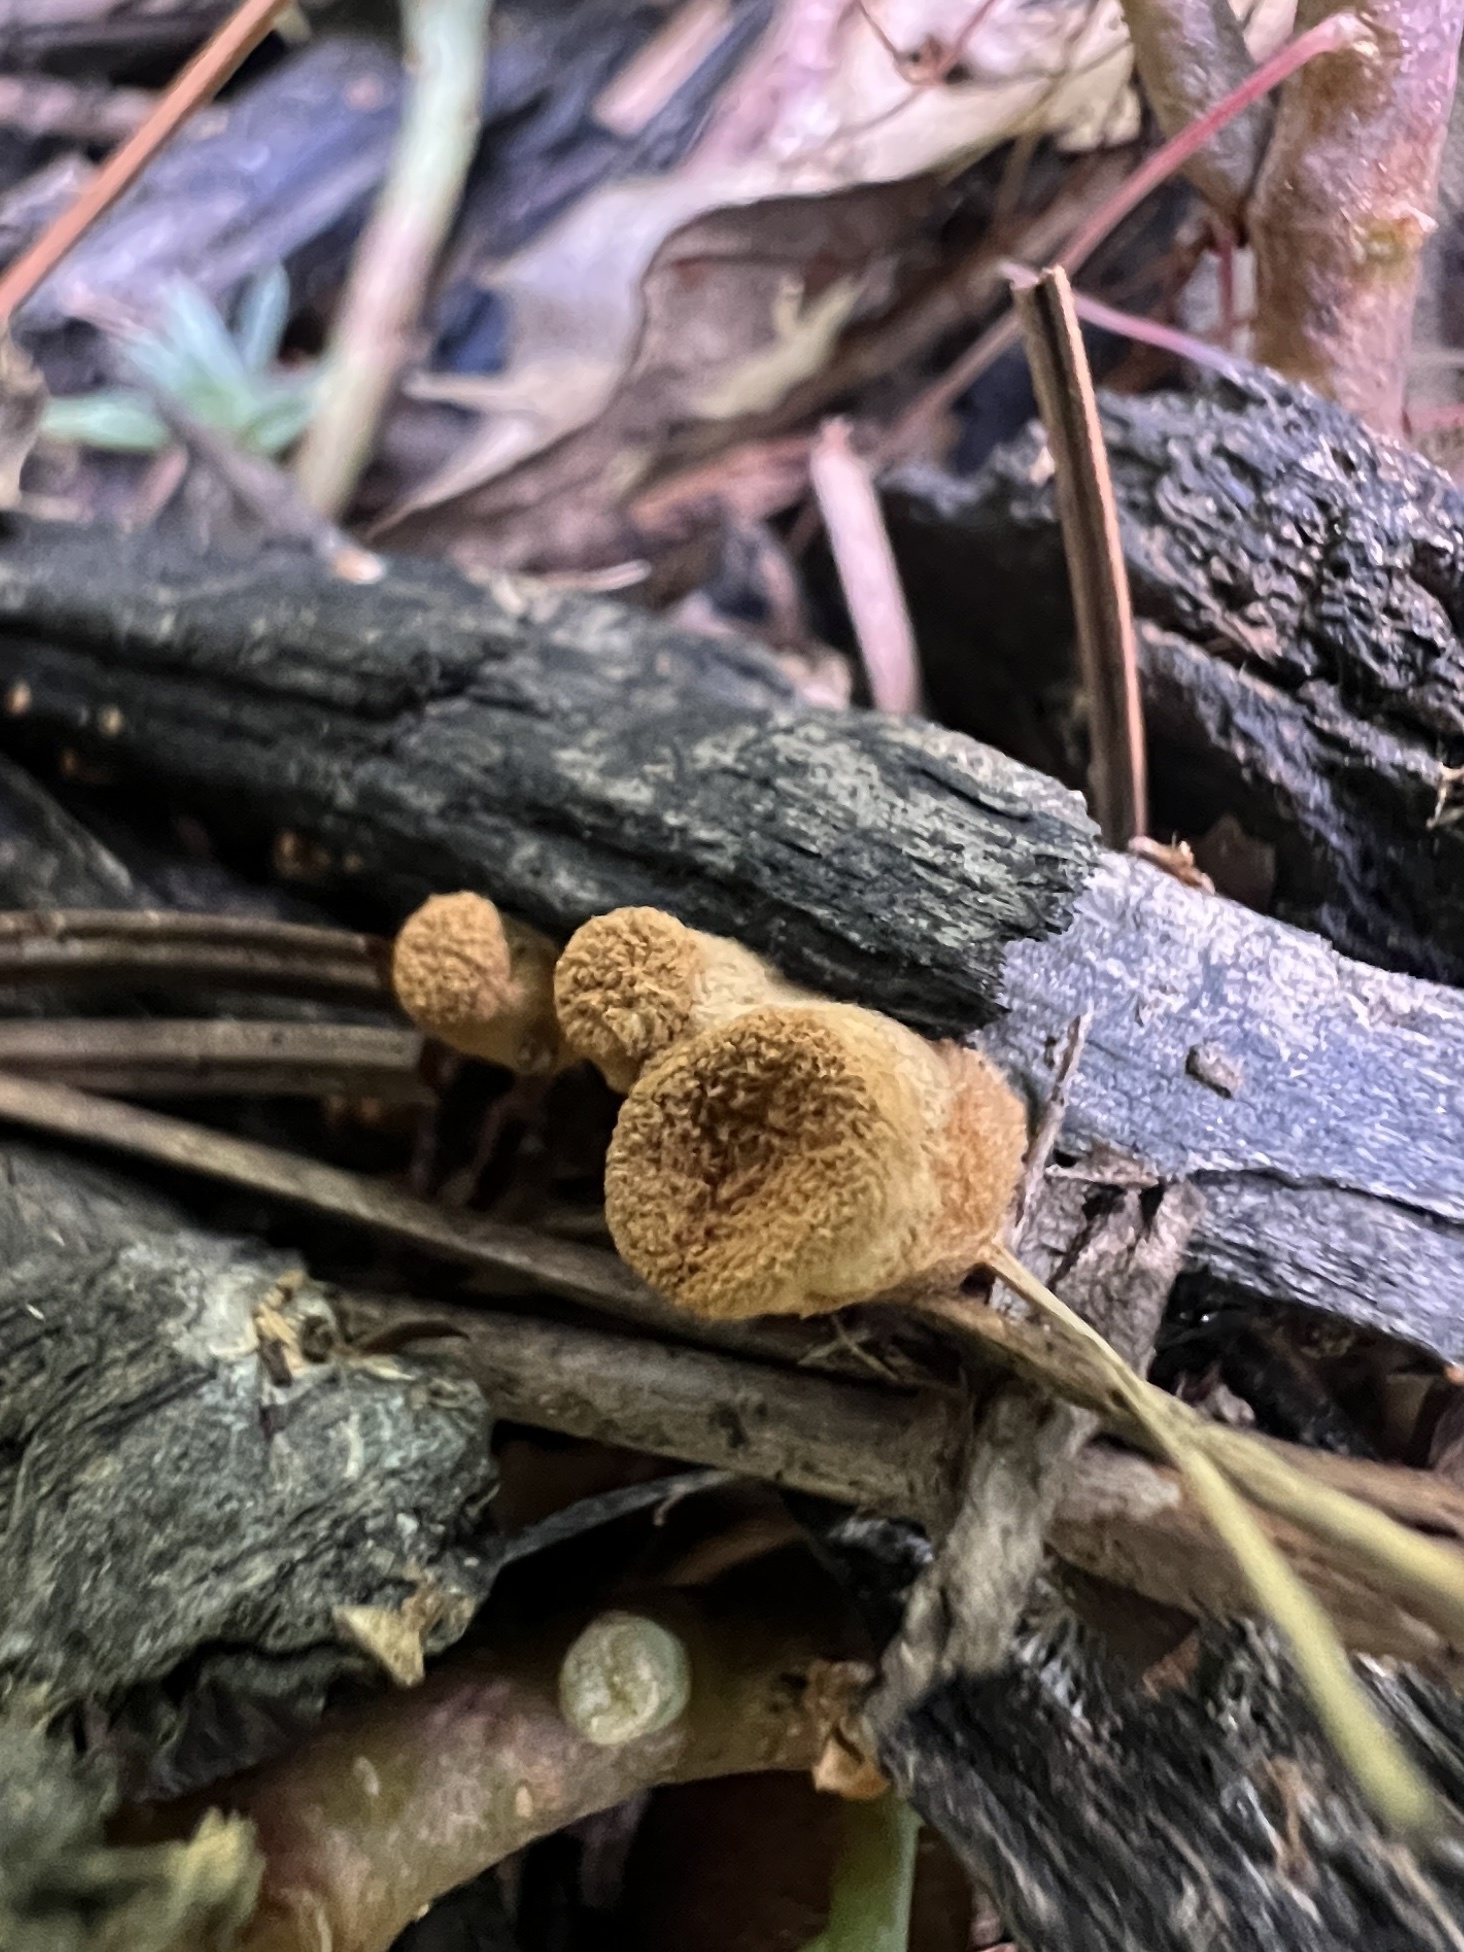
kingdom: Fungi
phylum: Basidiomycota
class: Agaricomycetes
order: Agaricales
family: Nidulariaceae
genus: Crucibulum
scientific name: Crucibulum laeve
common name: Common bird's nest
